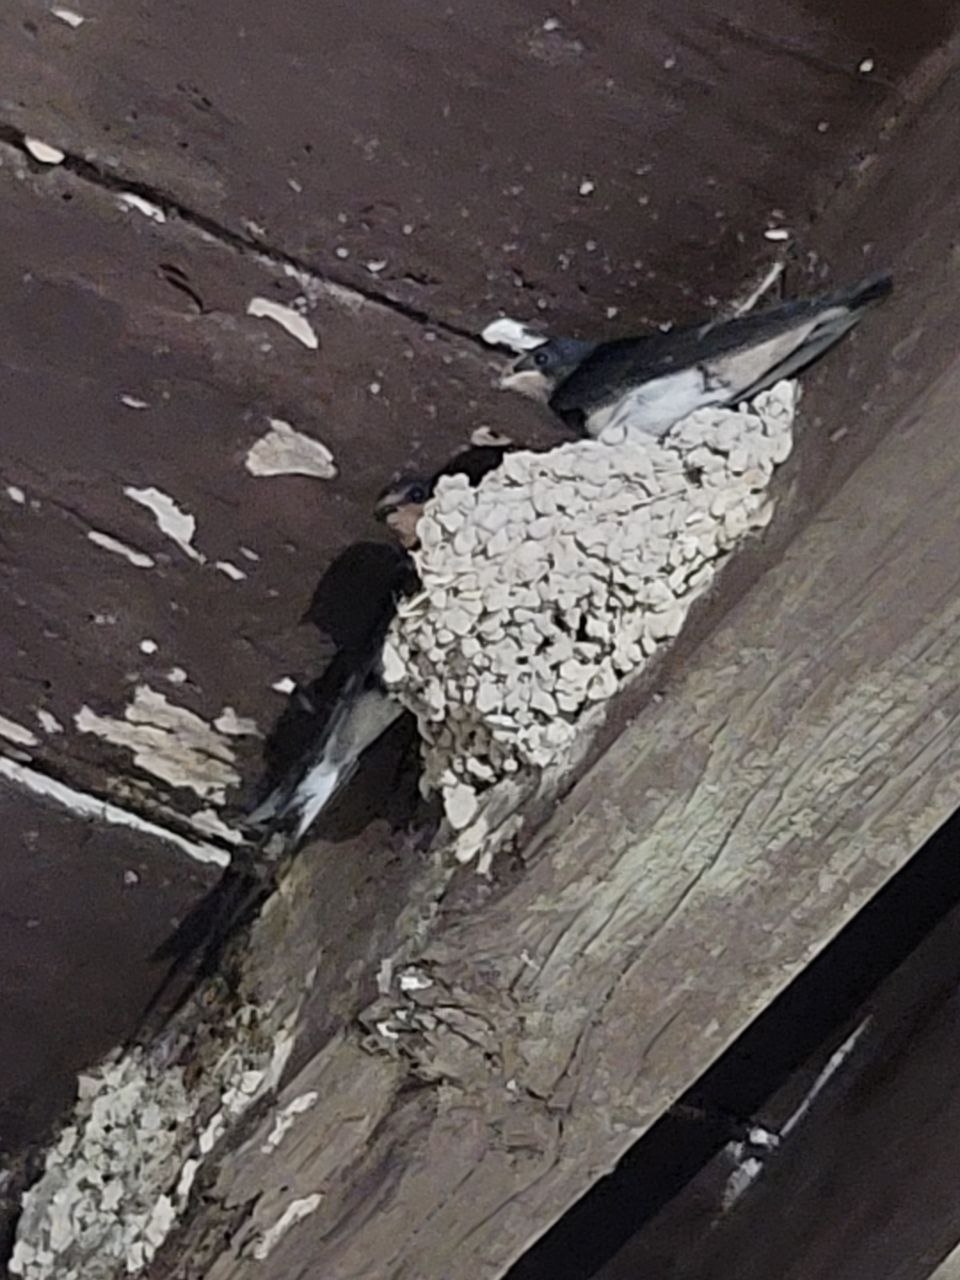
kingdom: Animalia
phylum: Chordata
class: Aves
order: Passeriformes
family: Hirundinidae
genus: Hirundo
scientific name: Hirundo rustica
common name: Barn swallow
